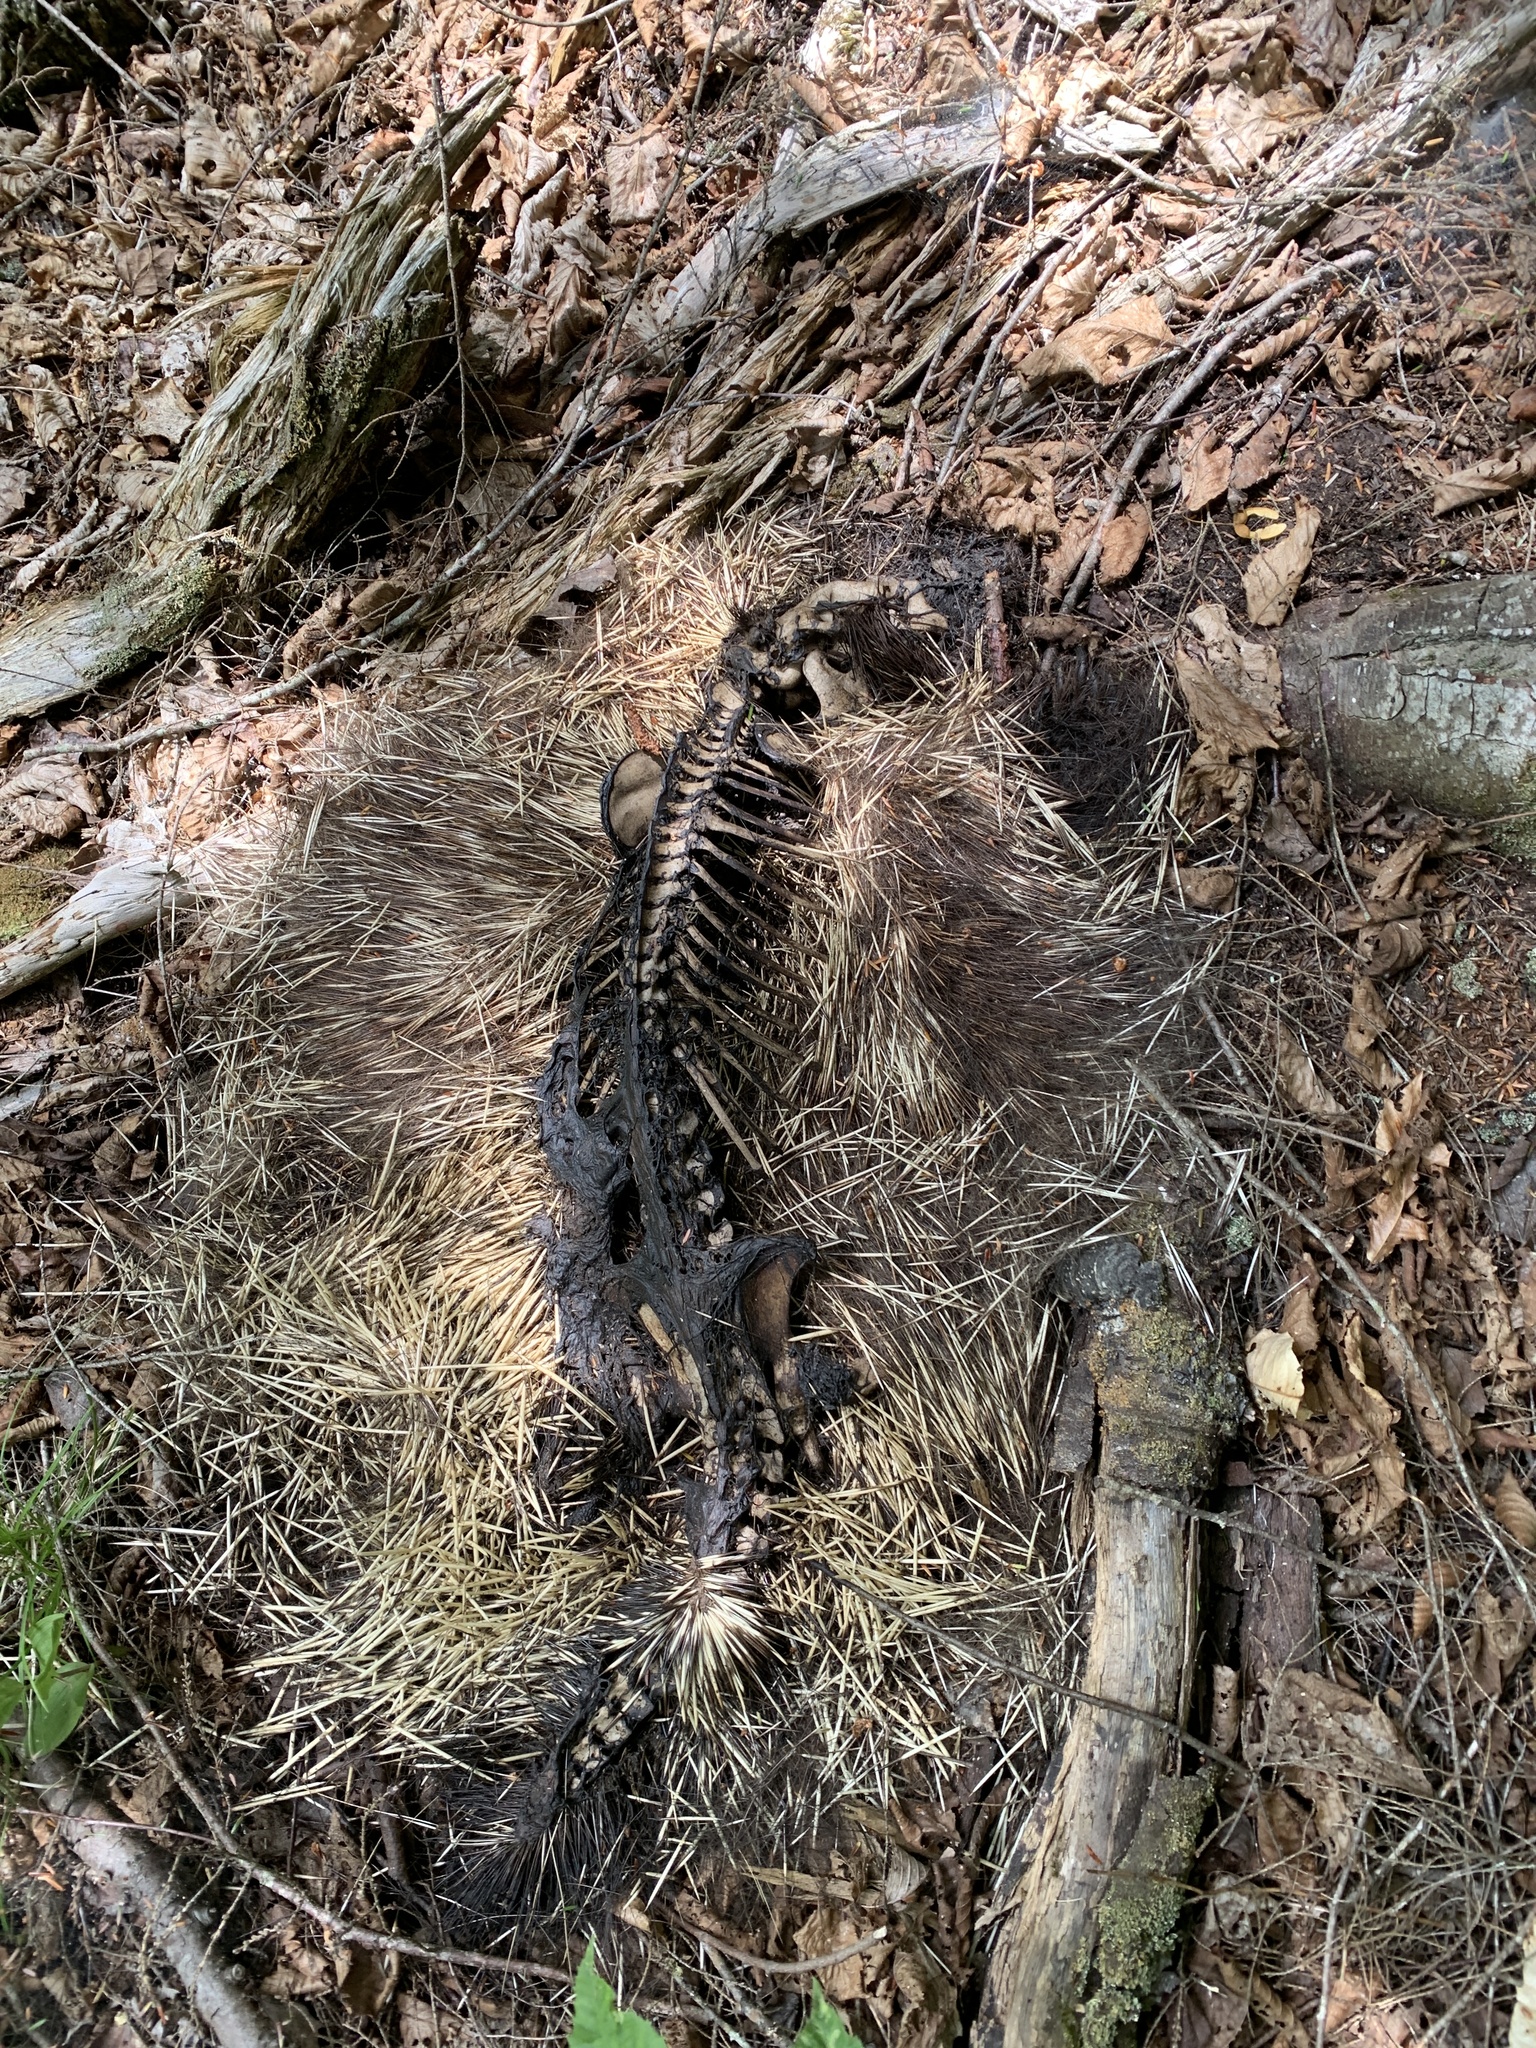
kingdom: Animalia
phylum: Chordata
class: Mammalia
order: Rodentia
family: Erethizontidae
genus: Erethizon
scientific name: Erethizon dorsatus
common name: North american porcupine
